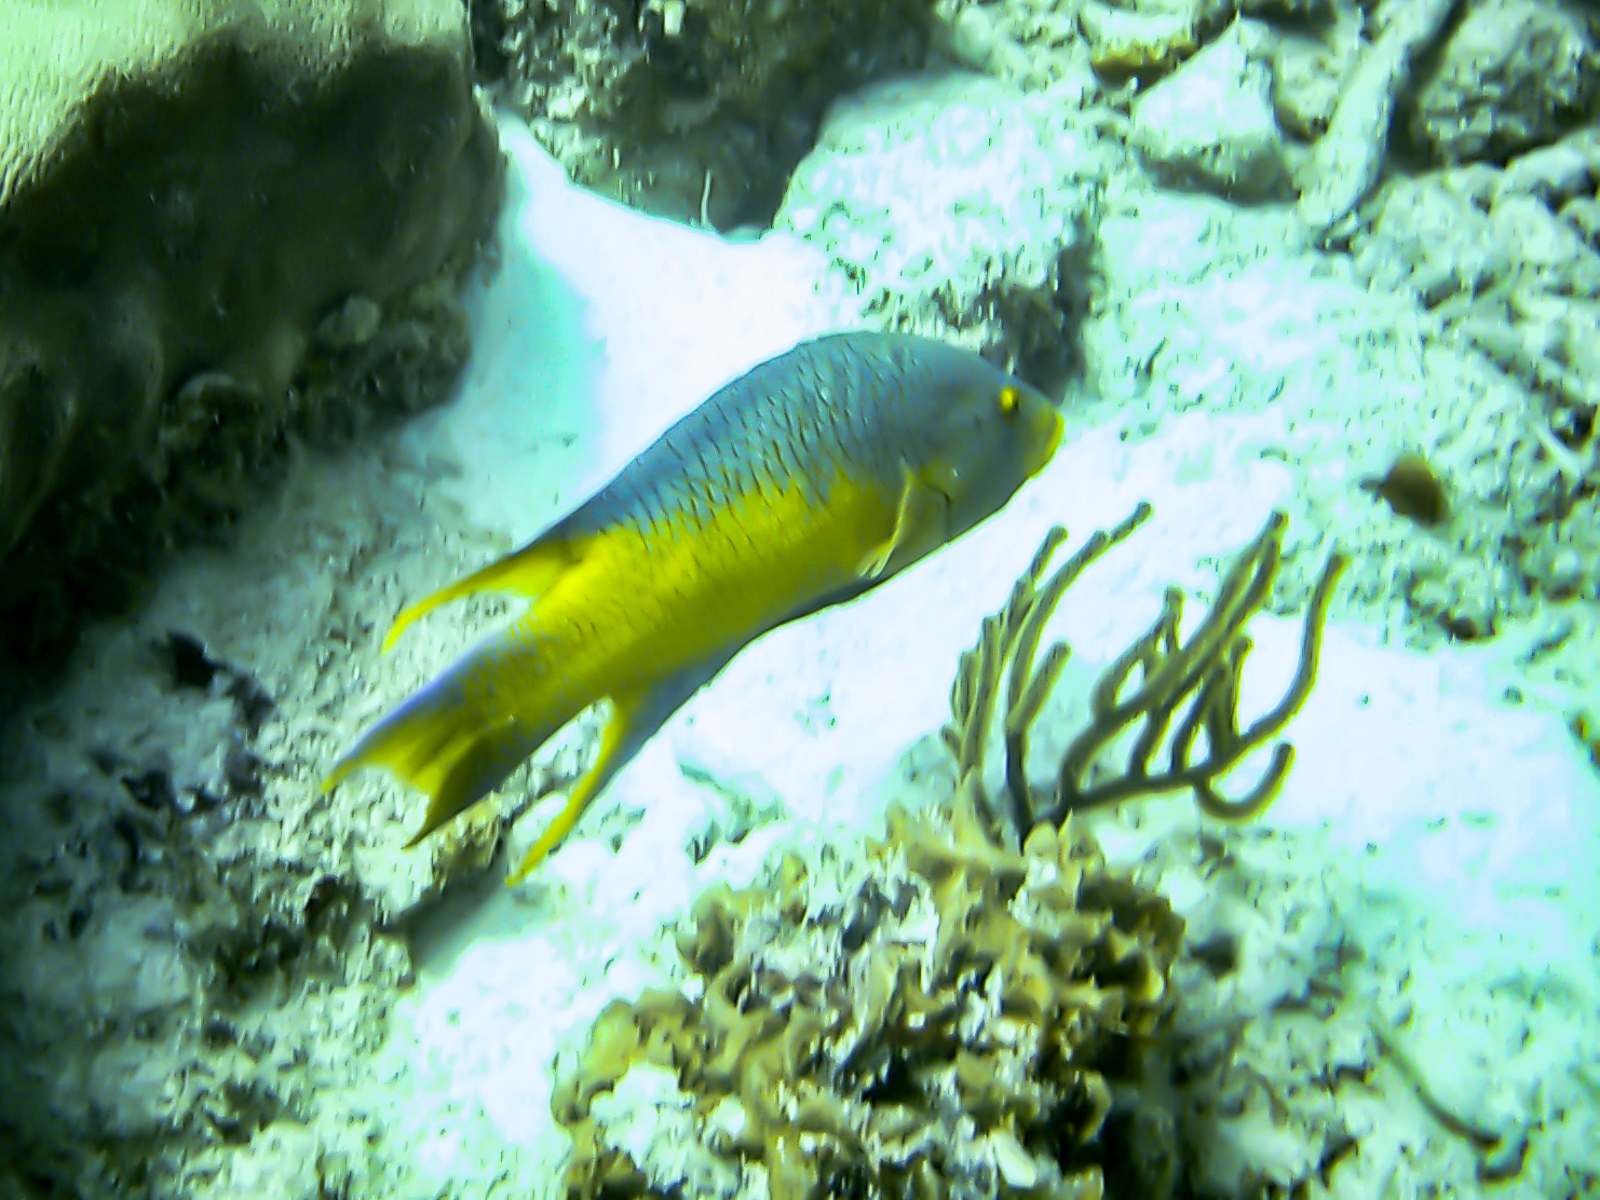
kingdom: Animalia
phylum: Chordata
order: Perciformes
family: Labridae
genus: Bodianus
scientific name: Bodianus rufus
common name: Spanish hogfish
